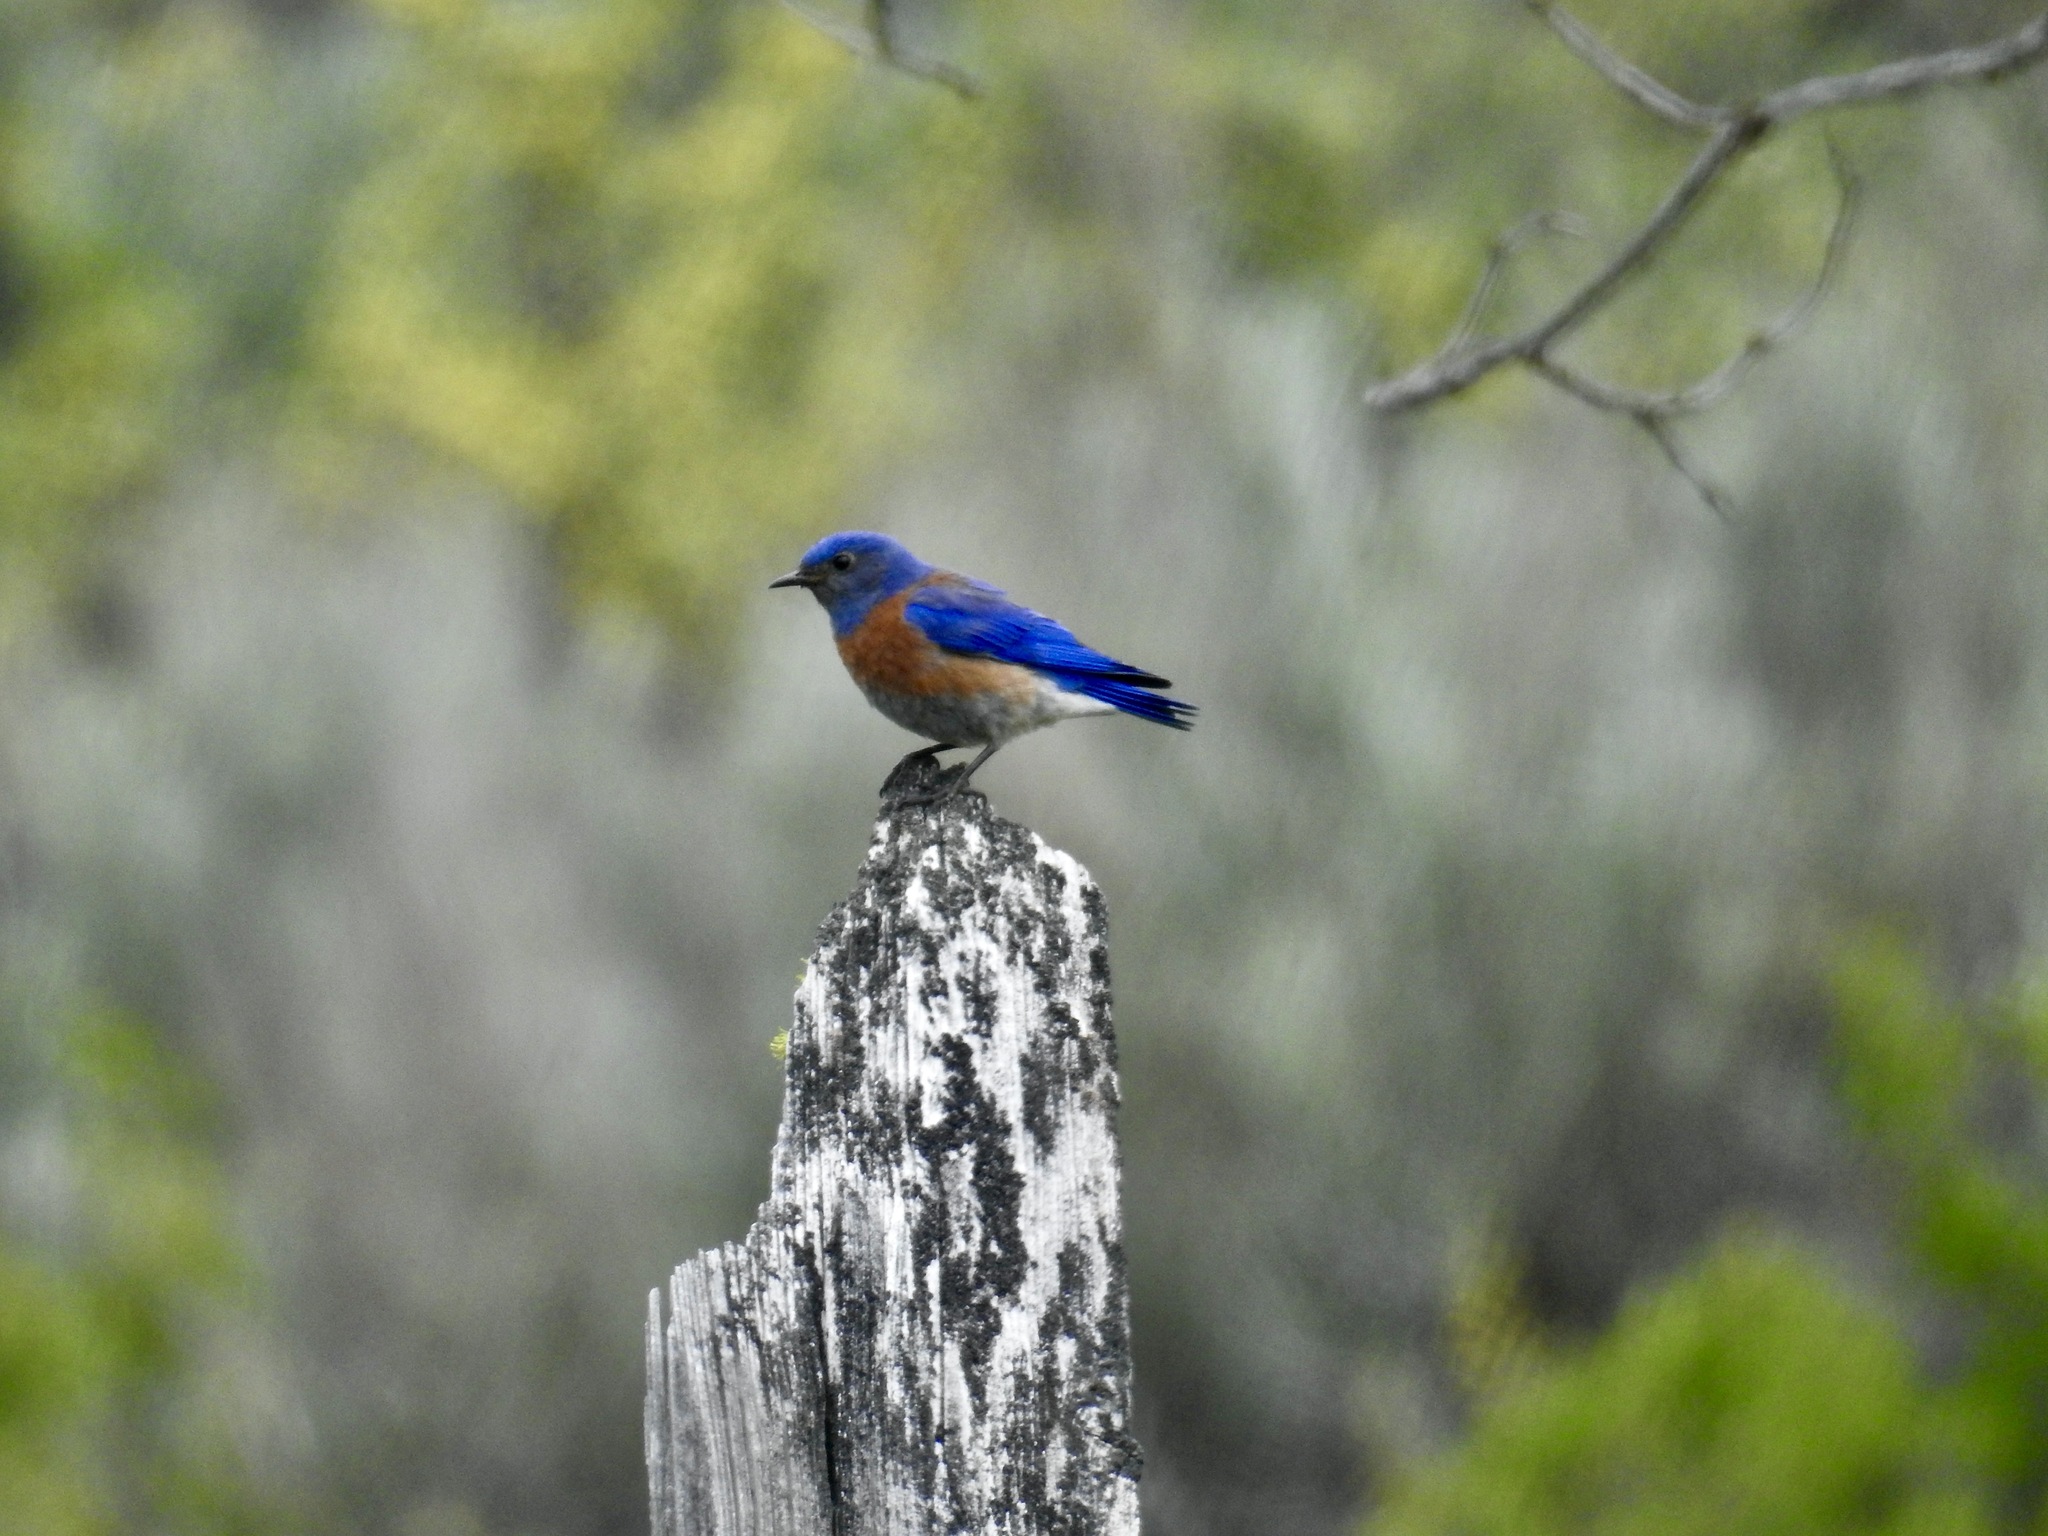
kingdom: Animalia
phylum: Chordata
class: Aves
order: Passeriformes
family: Turdidae
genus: Sialia
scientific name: Sialia mexicana
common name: Western bluebird
